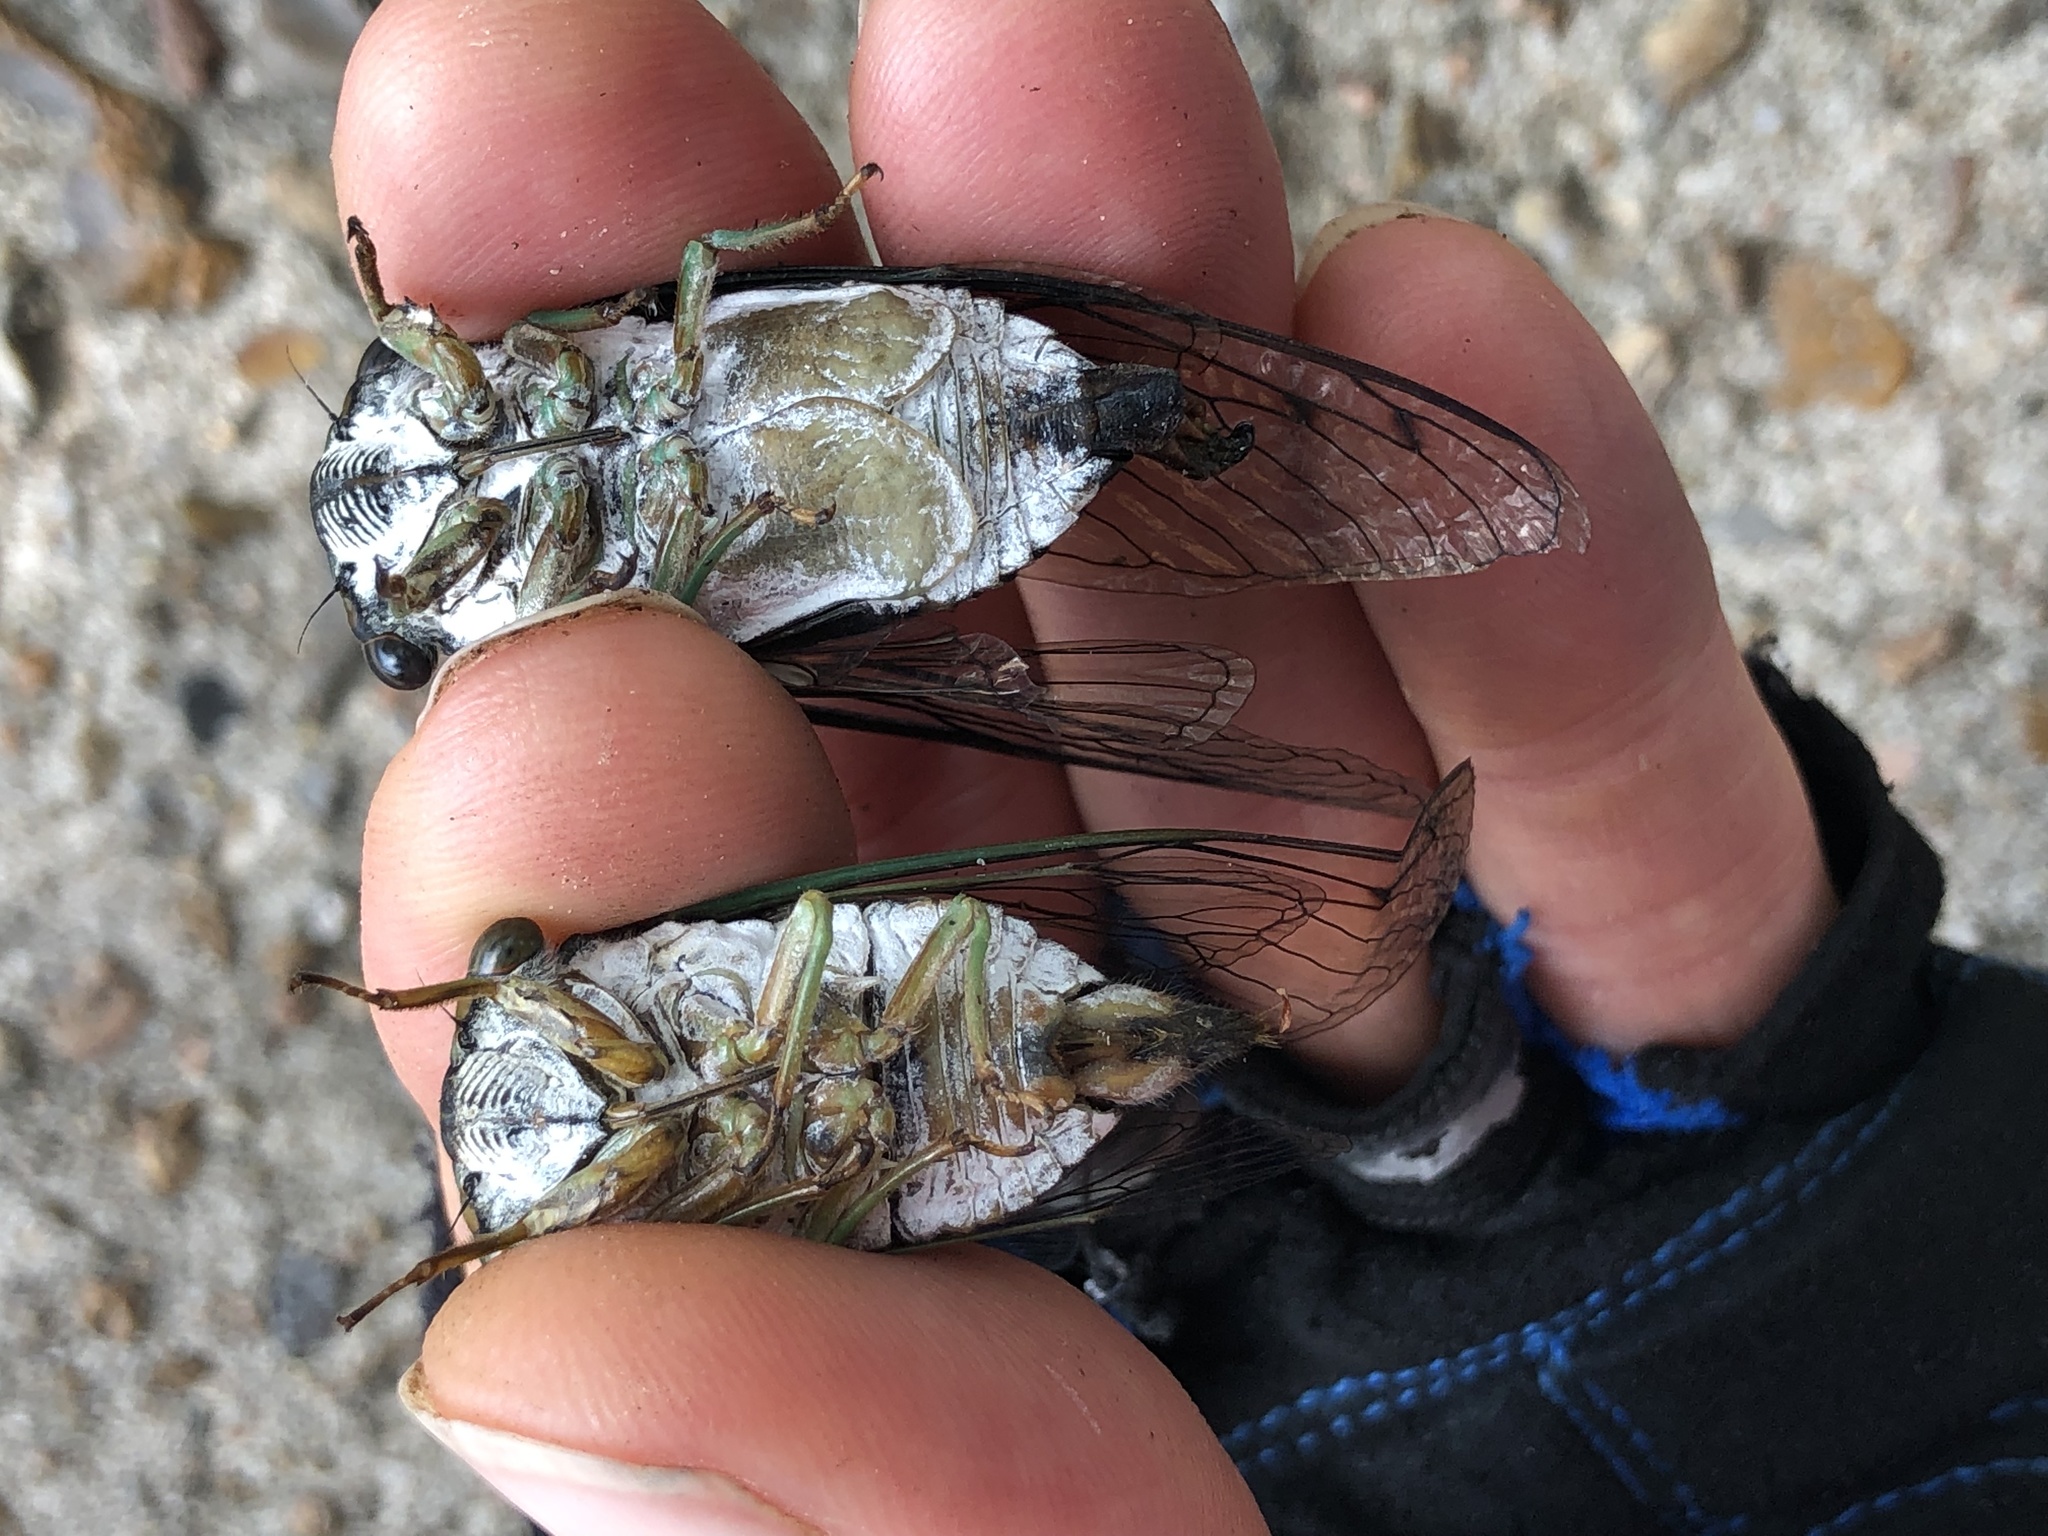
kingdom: Animalia
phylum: Arthropoda
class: Insecta
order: Hemiptera
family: Cicadidae
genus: Neotibicen
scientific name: Neotibicen tibicen
